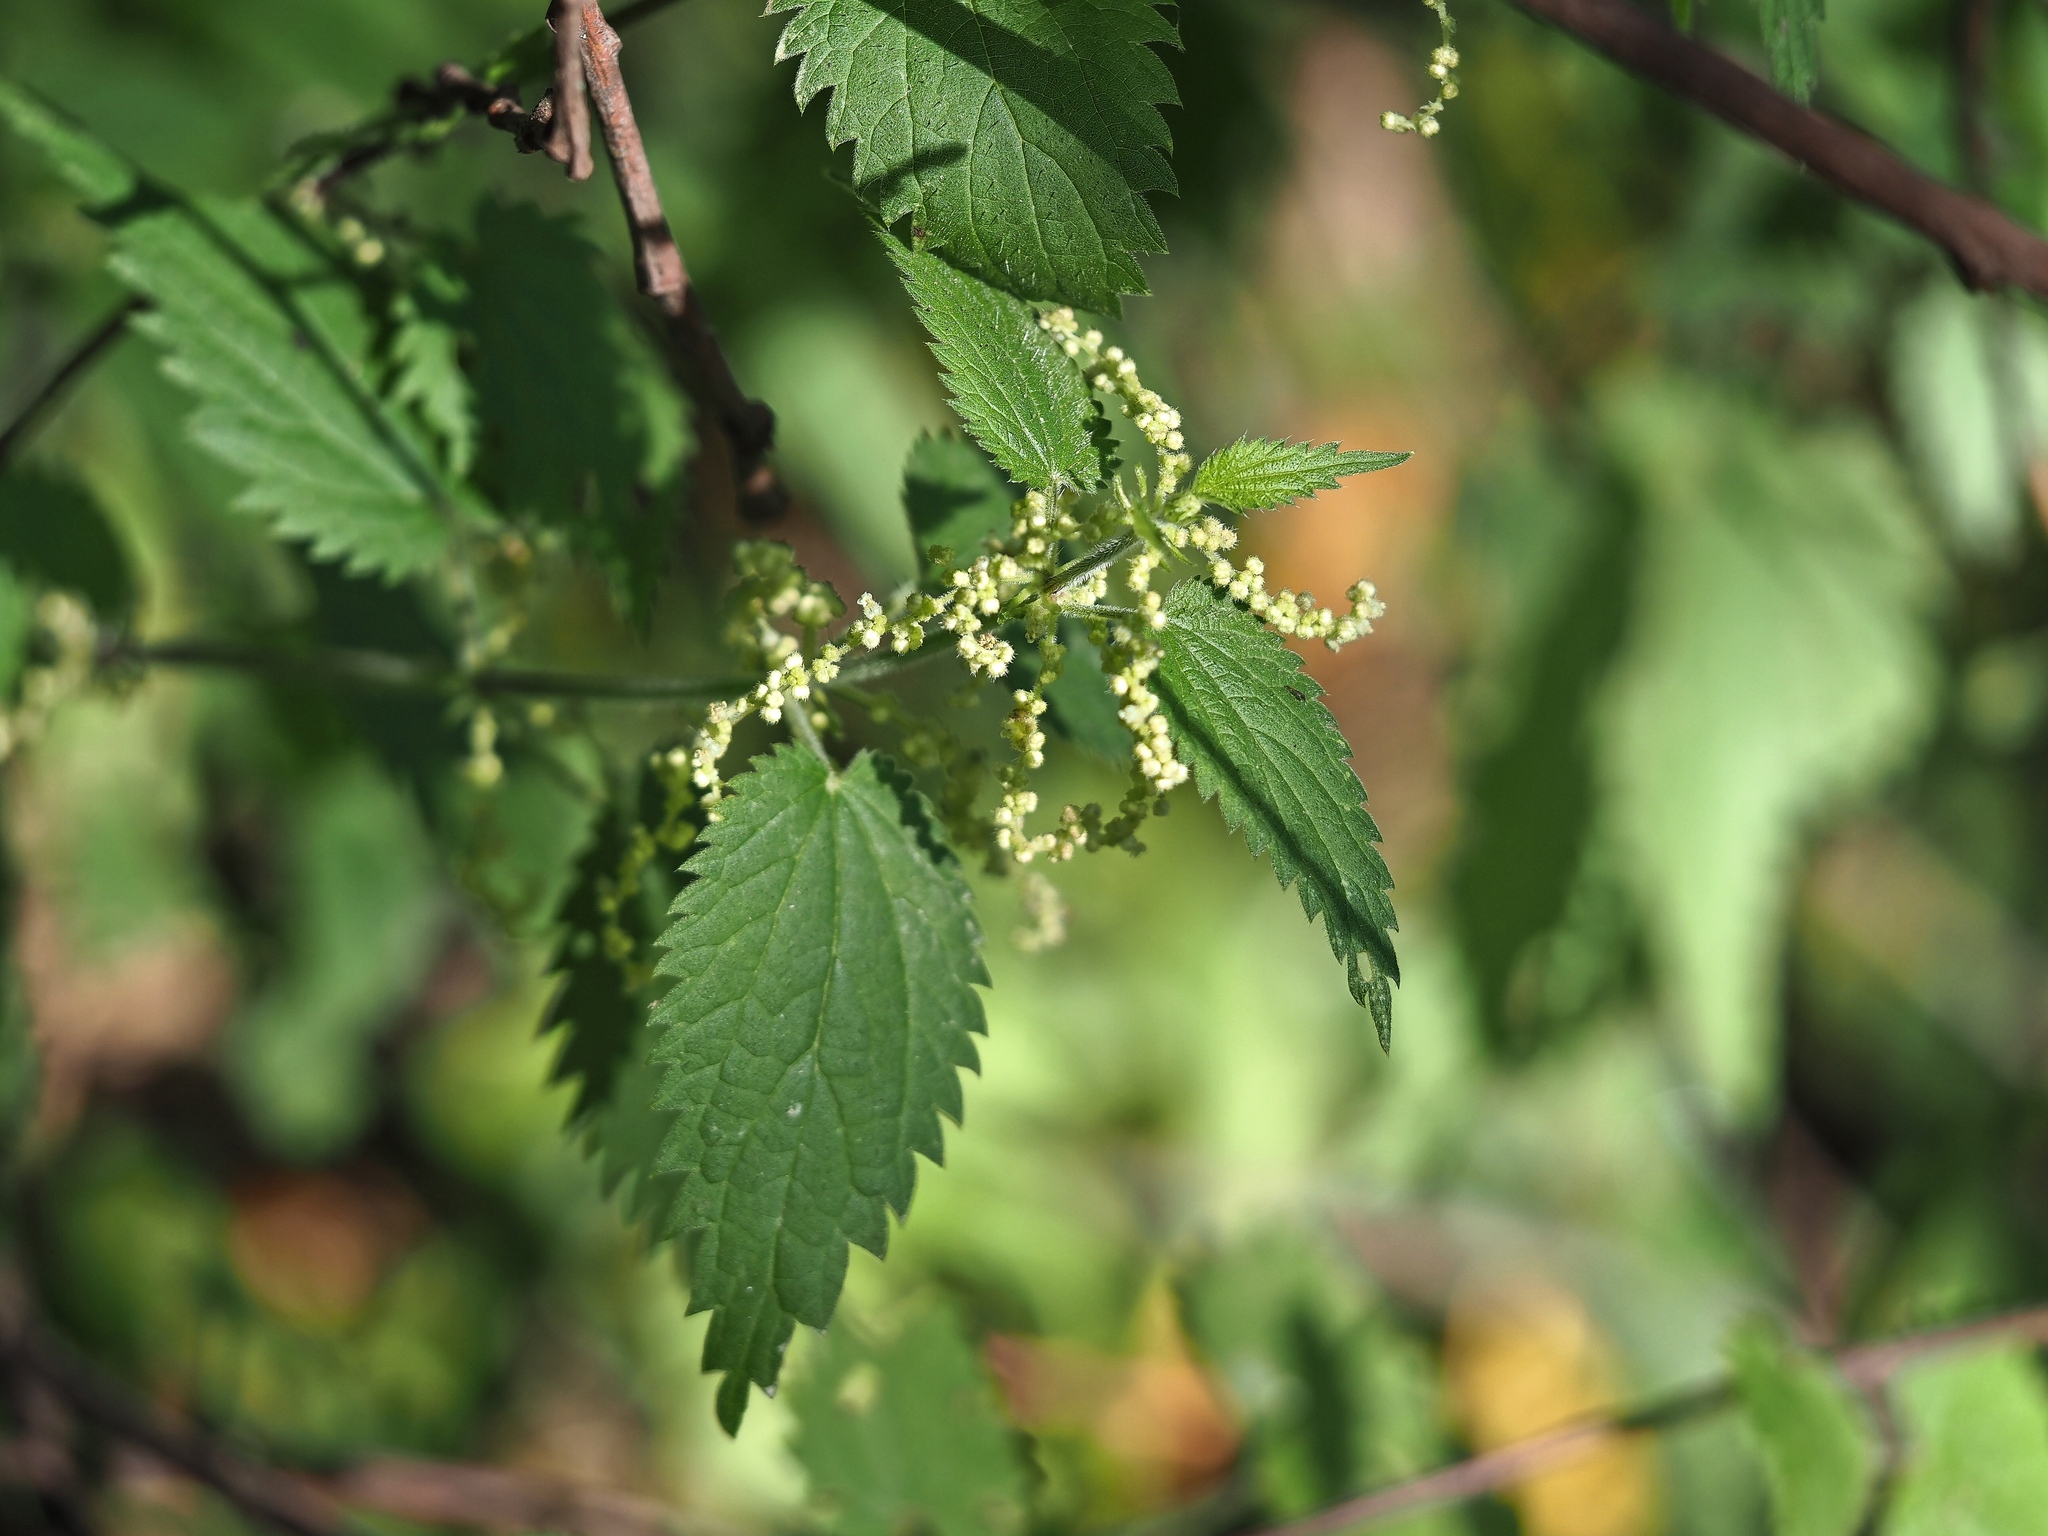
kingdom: Plantae
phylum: Tracheophyta
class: Magnoliopsida
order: Rosales
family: Urticaceae
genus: Urtica
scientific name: Urtica dioica
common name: Common nettle
